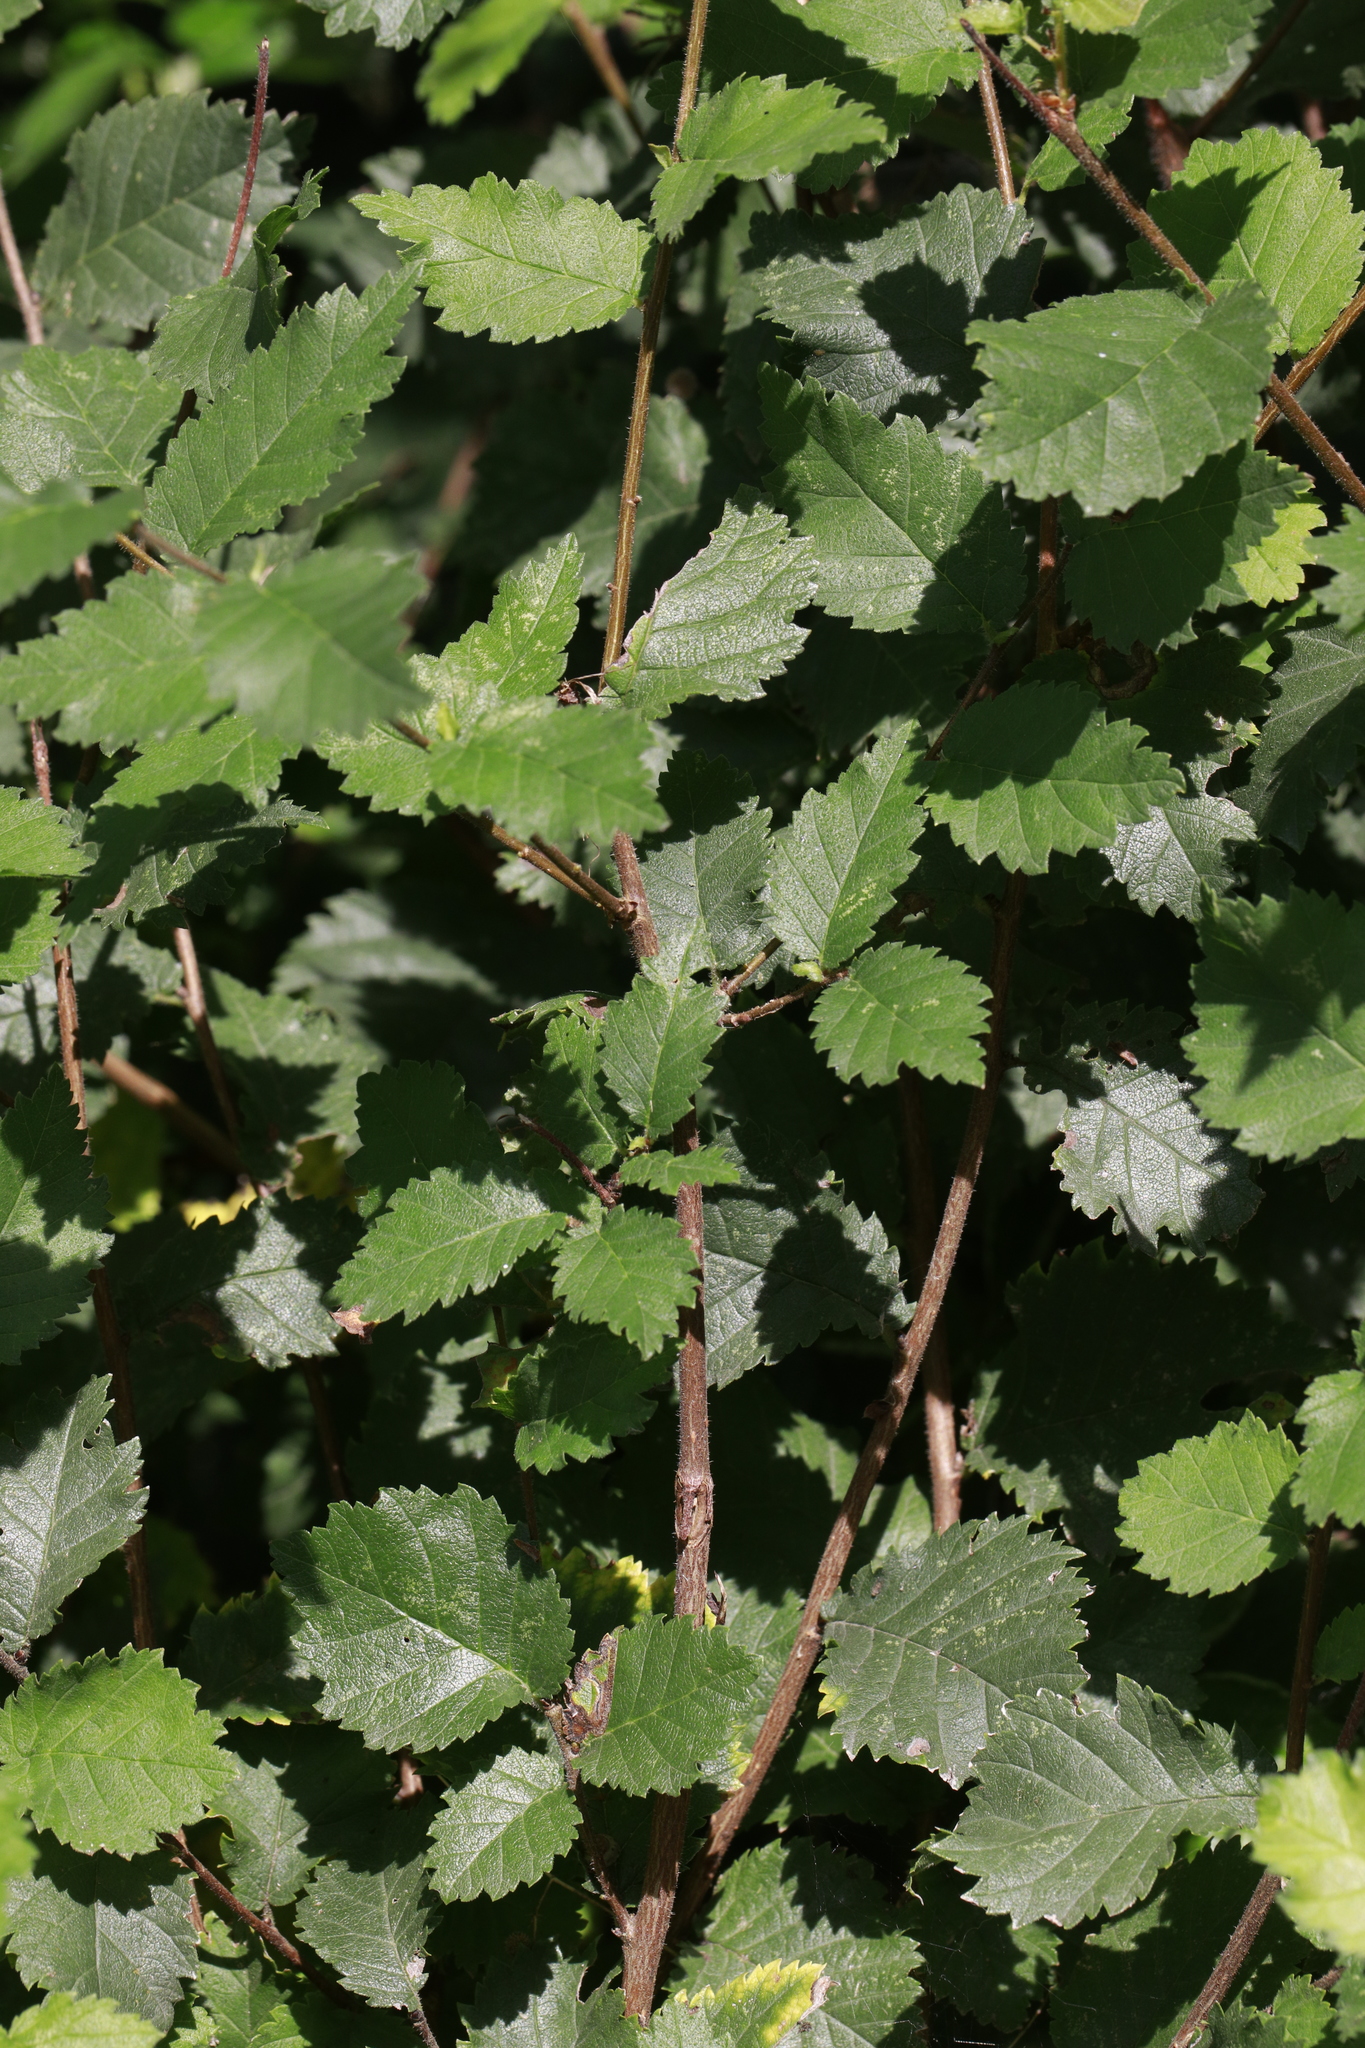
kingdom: Plantae
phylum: Tracheophyta
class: Magnoliopsida
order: Rosales
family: Ulmaceae
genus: Ulmus
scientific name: Ulmus minor
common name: Small-leaved elm
